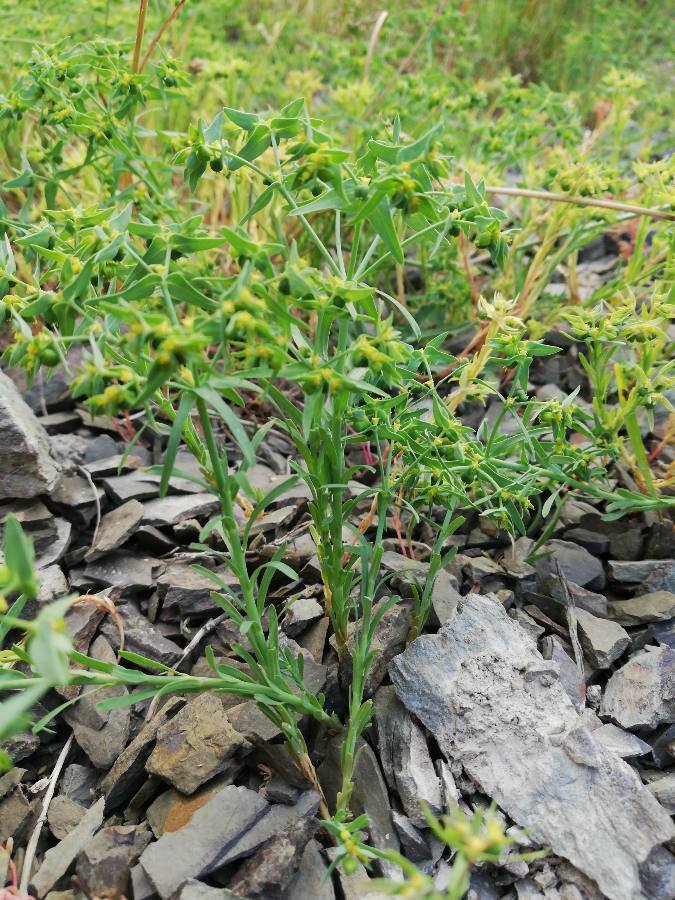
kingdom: Plantae
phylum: Tracheophyta
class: Magnoliopsida
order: Malpighiales
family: Euphorbiaceae
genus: Euphorbia
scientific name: Euphorbia exigua
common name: Dwarf spurge
